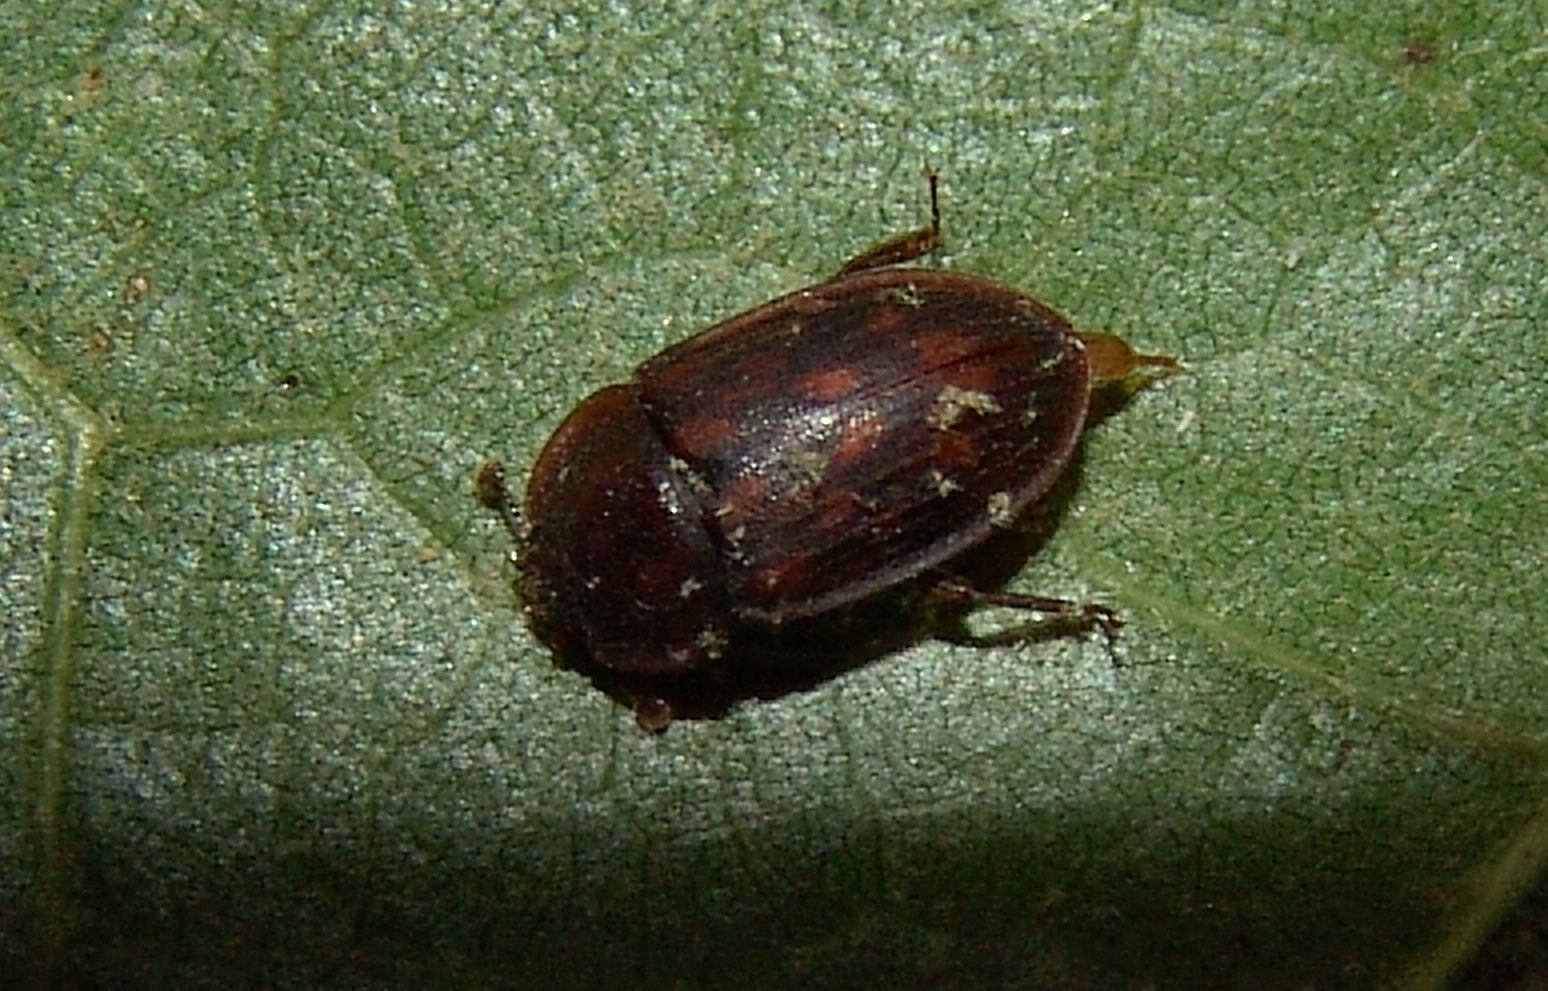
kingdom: Animalia
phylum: Arthropoda
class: Insecta
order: Coleoptera
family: Nitidulidae
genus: Phenolia
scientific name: Phenolia grossa
